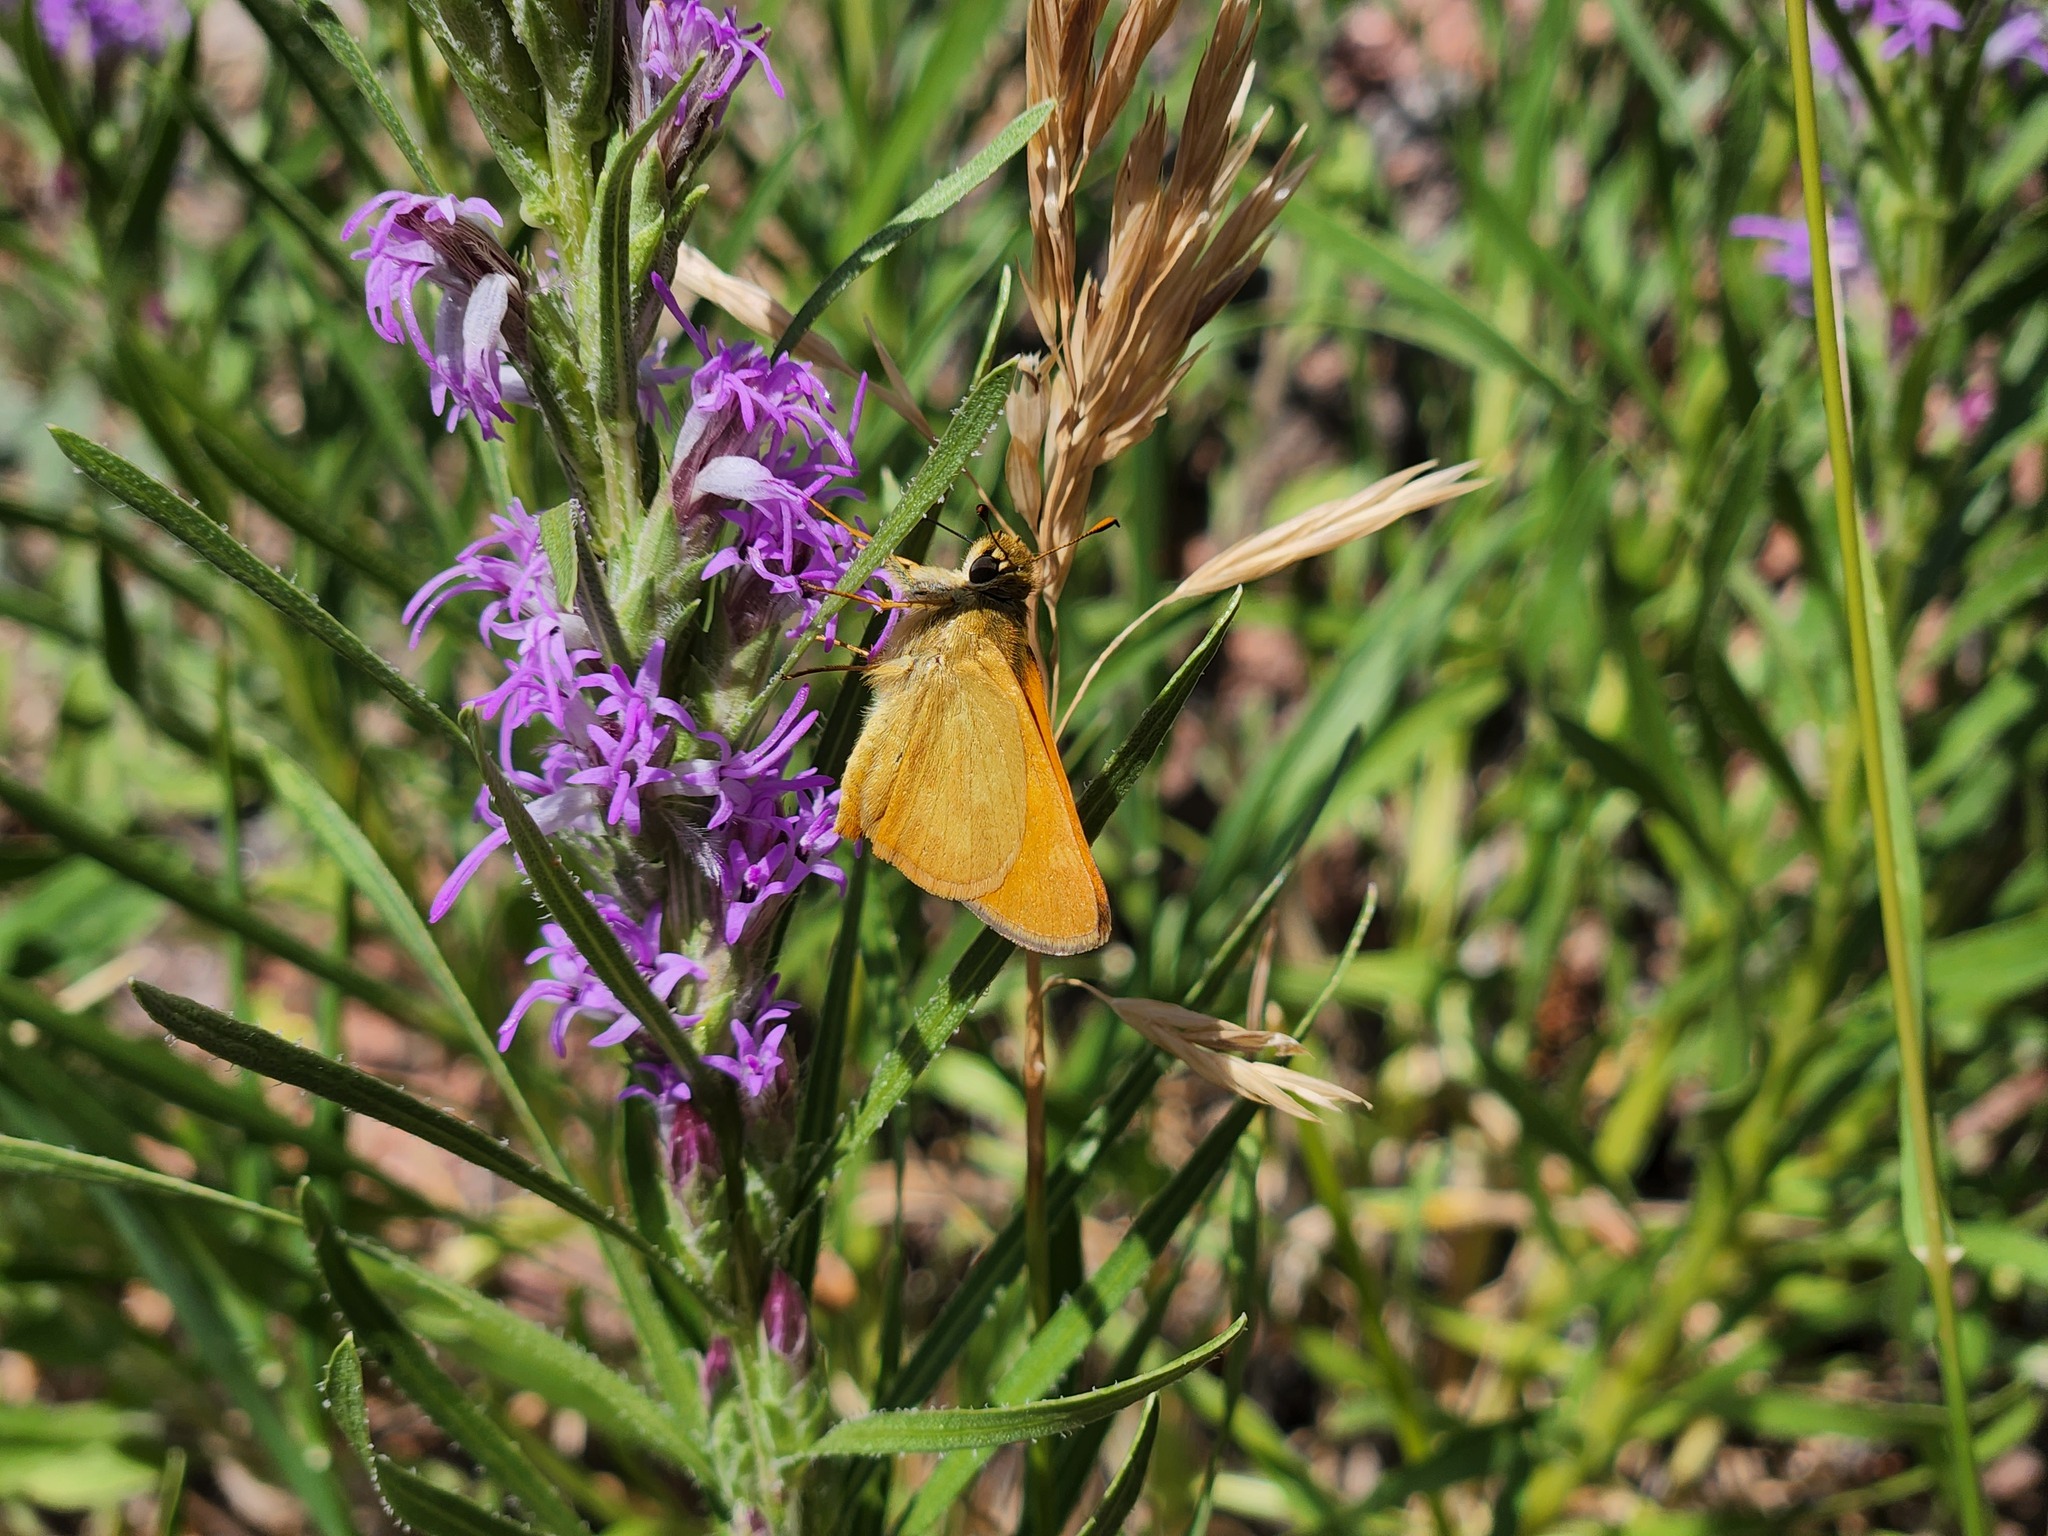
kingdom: Animalia
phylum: Arthropoda
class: Insecta
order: Lepidoptera
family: Hesperiidae
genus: Ochlodes
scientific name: Ochlodes sylvanoides
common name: Woodland skipper
